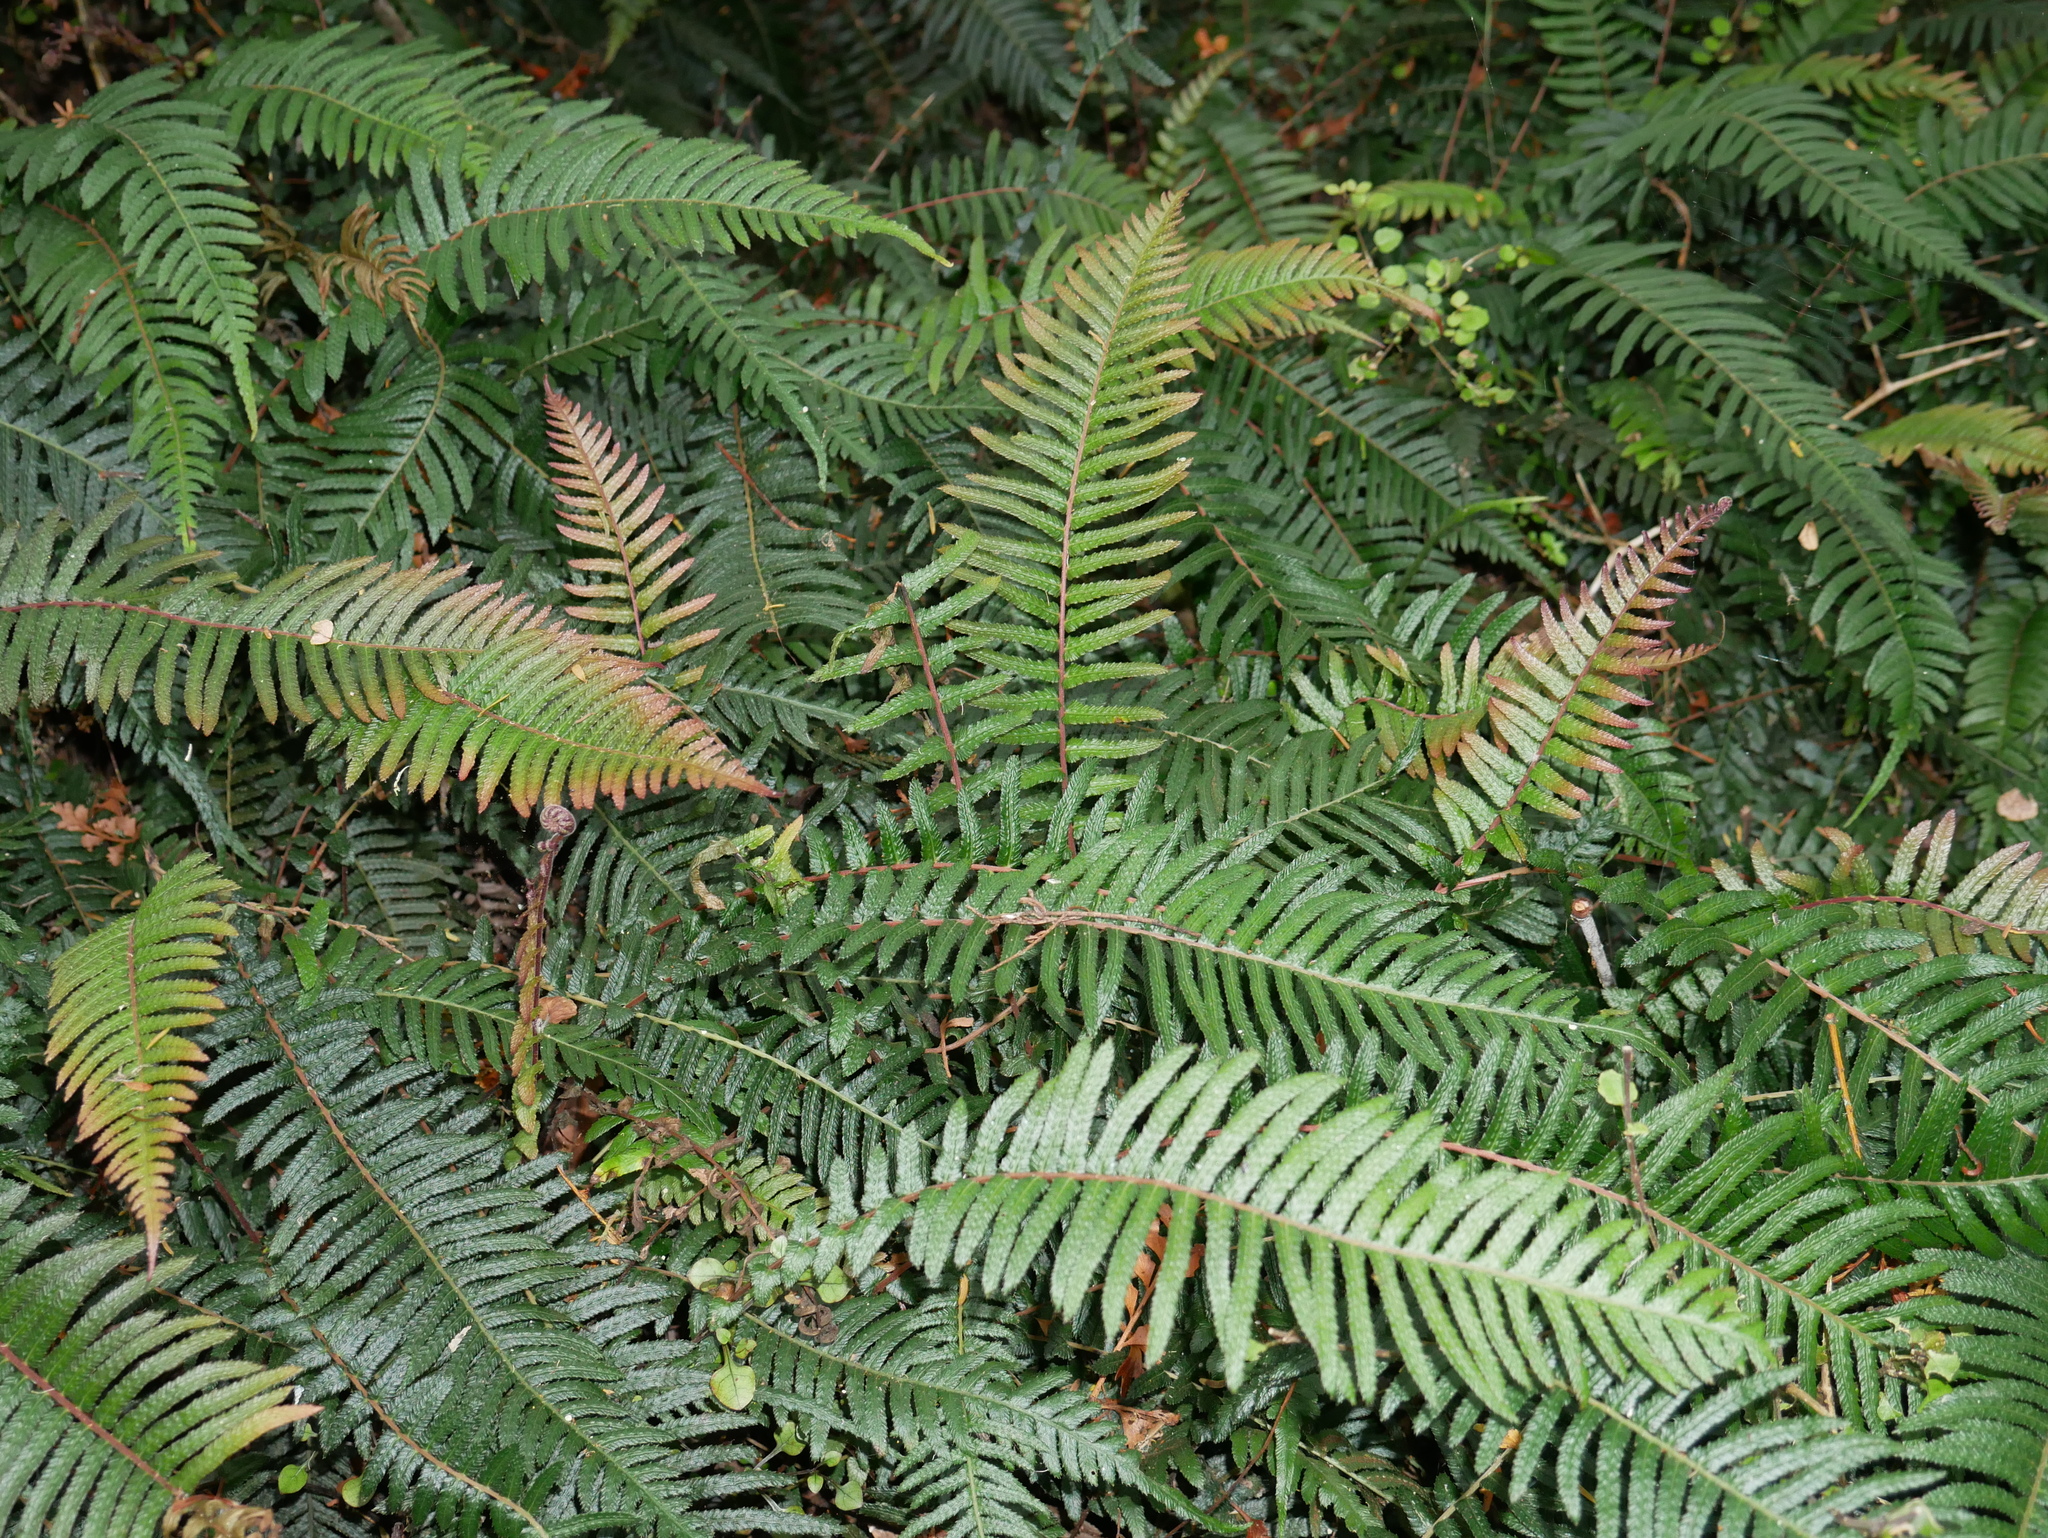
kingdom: Plantae
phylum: Tracheophyta
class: Polypodiopsida
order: Polypodiales
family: Blechnaceae
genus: Doodia
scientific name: Doodia australis
